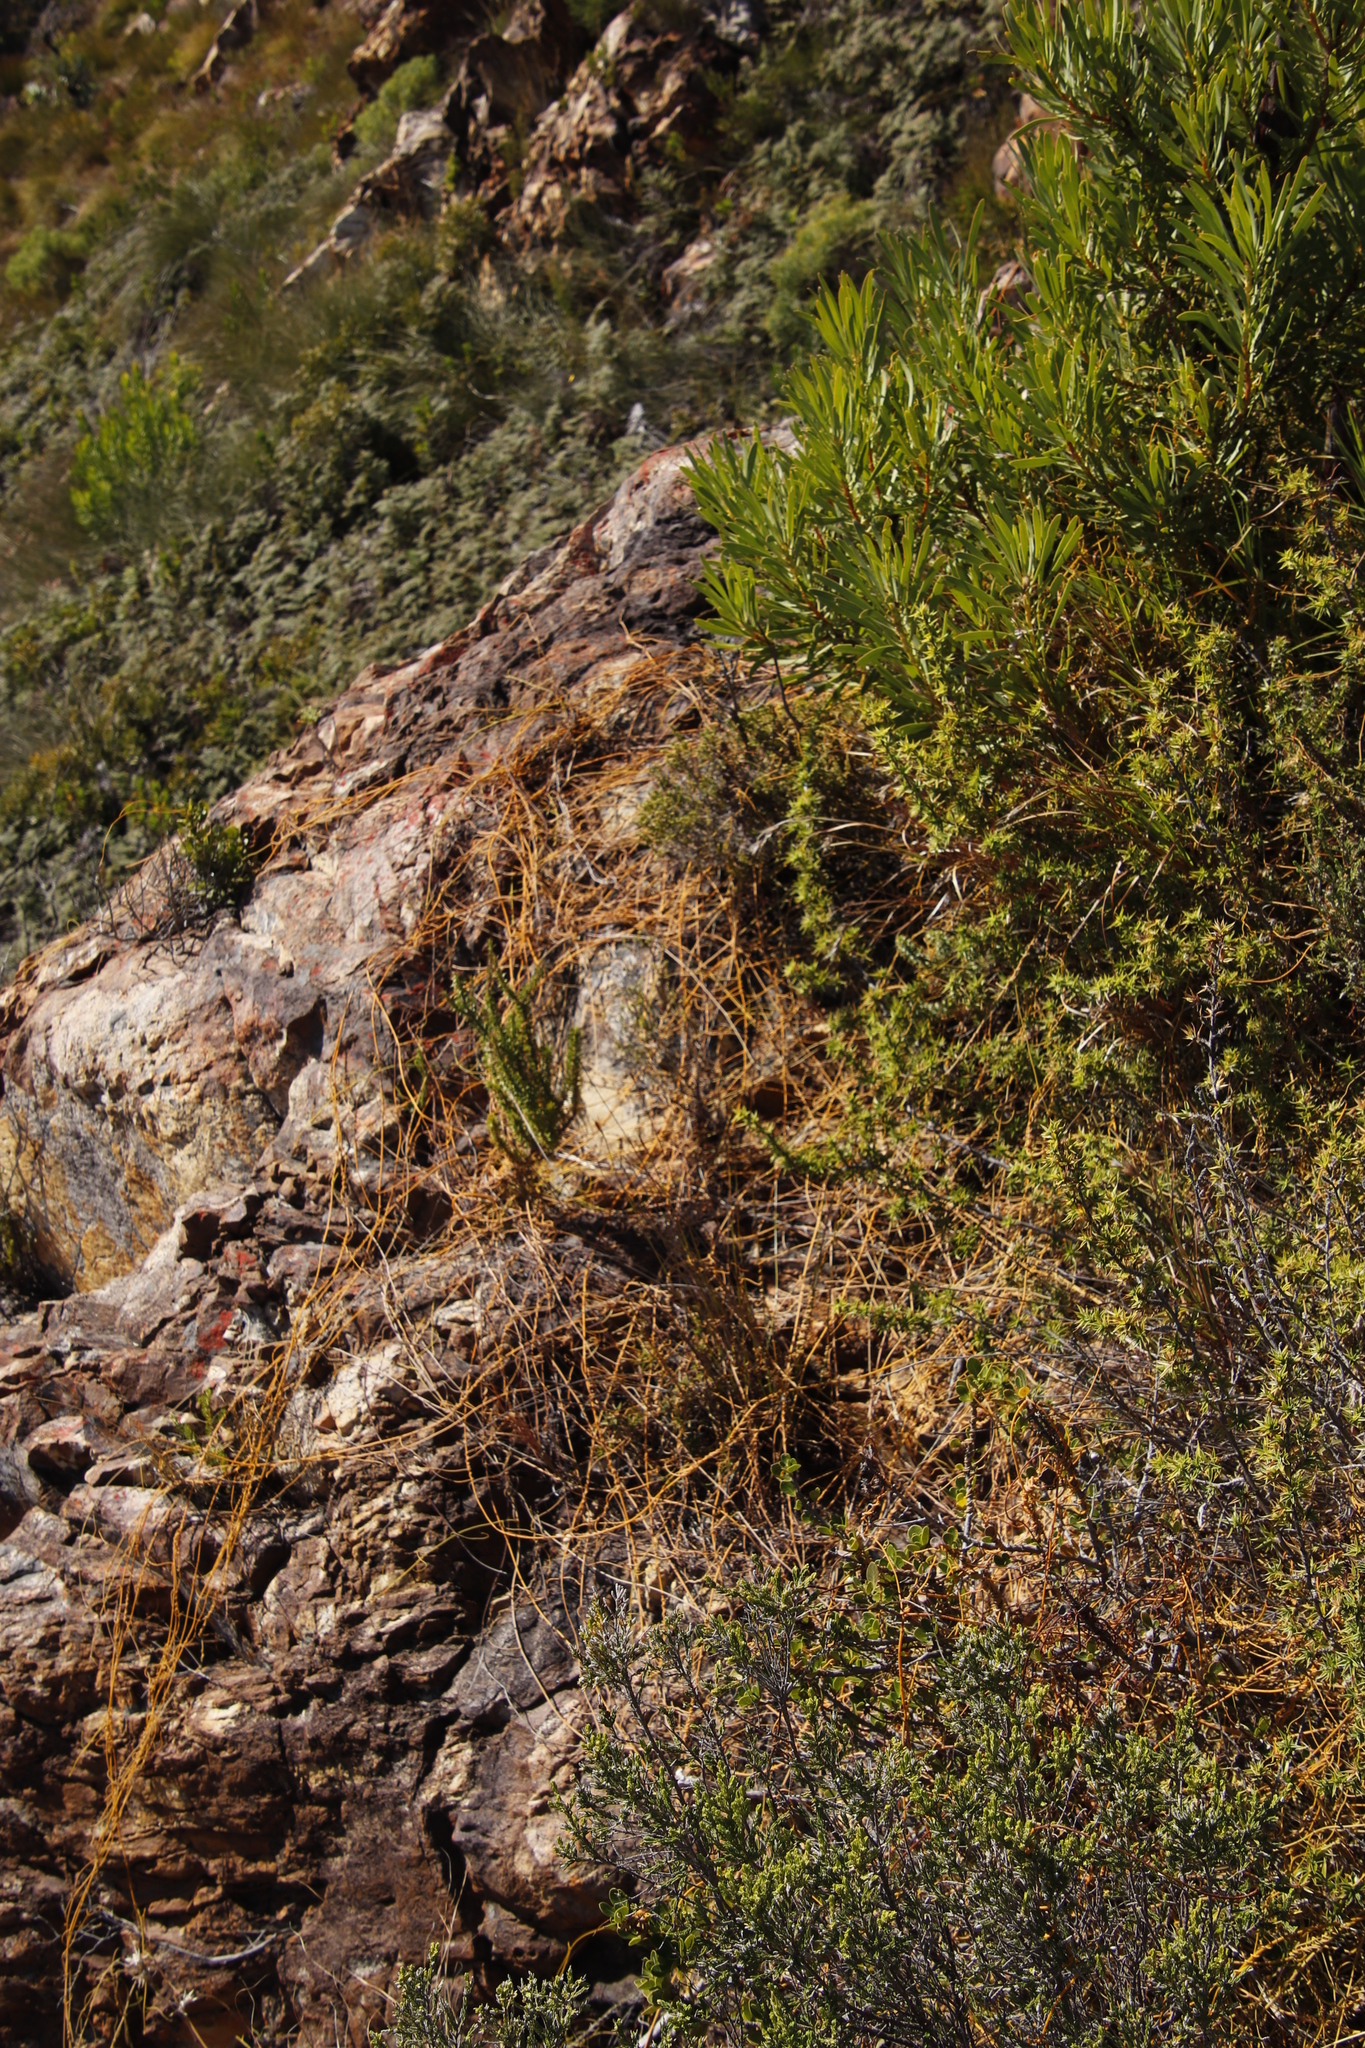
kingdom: Plantae
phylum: Tracheophyta
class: Magnoliopsida
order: Laurales
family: Lauraceae
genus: Cassytha
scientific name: Cassytha ciliolata
